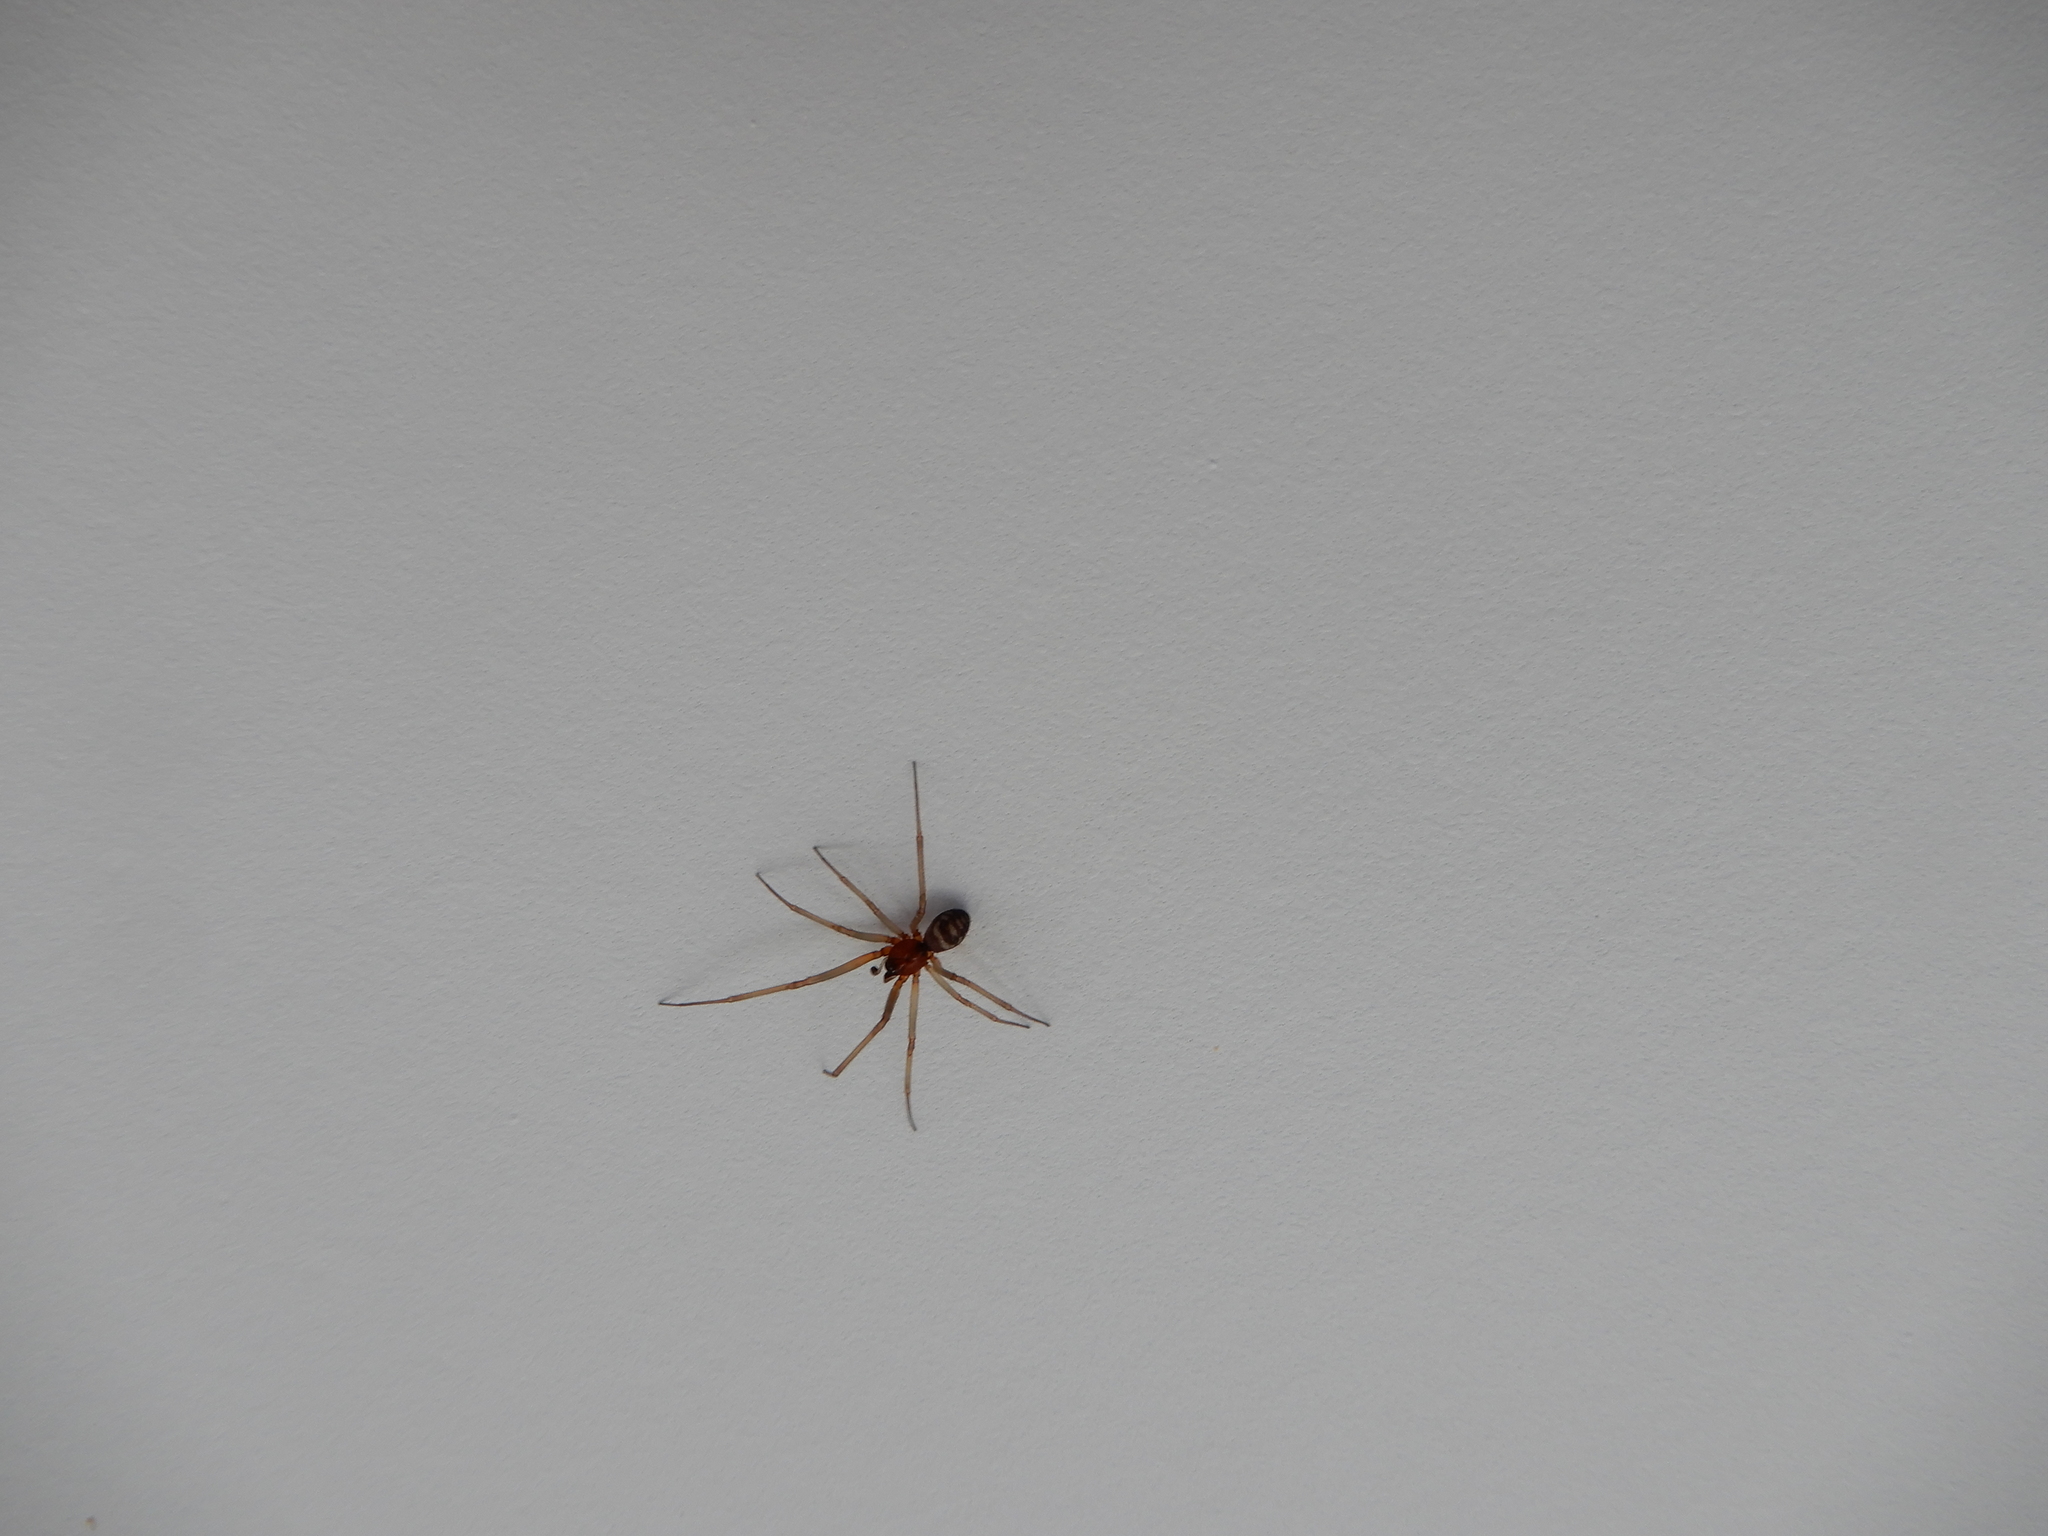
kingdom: Animalia
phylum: Arthropoda
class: Arachnida
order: Araneae
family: Theridiidae
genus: Steatoda
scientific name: Steatoda grossa
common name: False black widow
